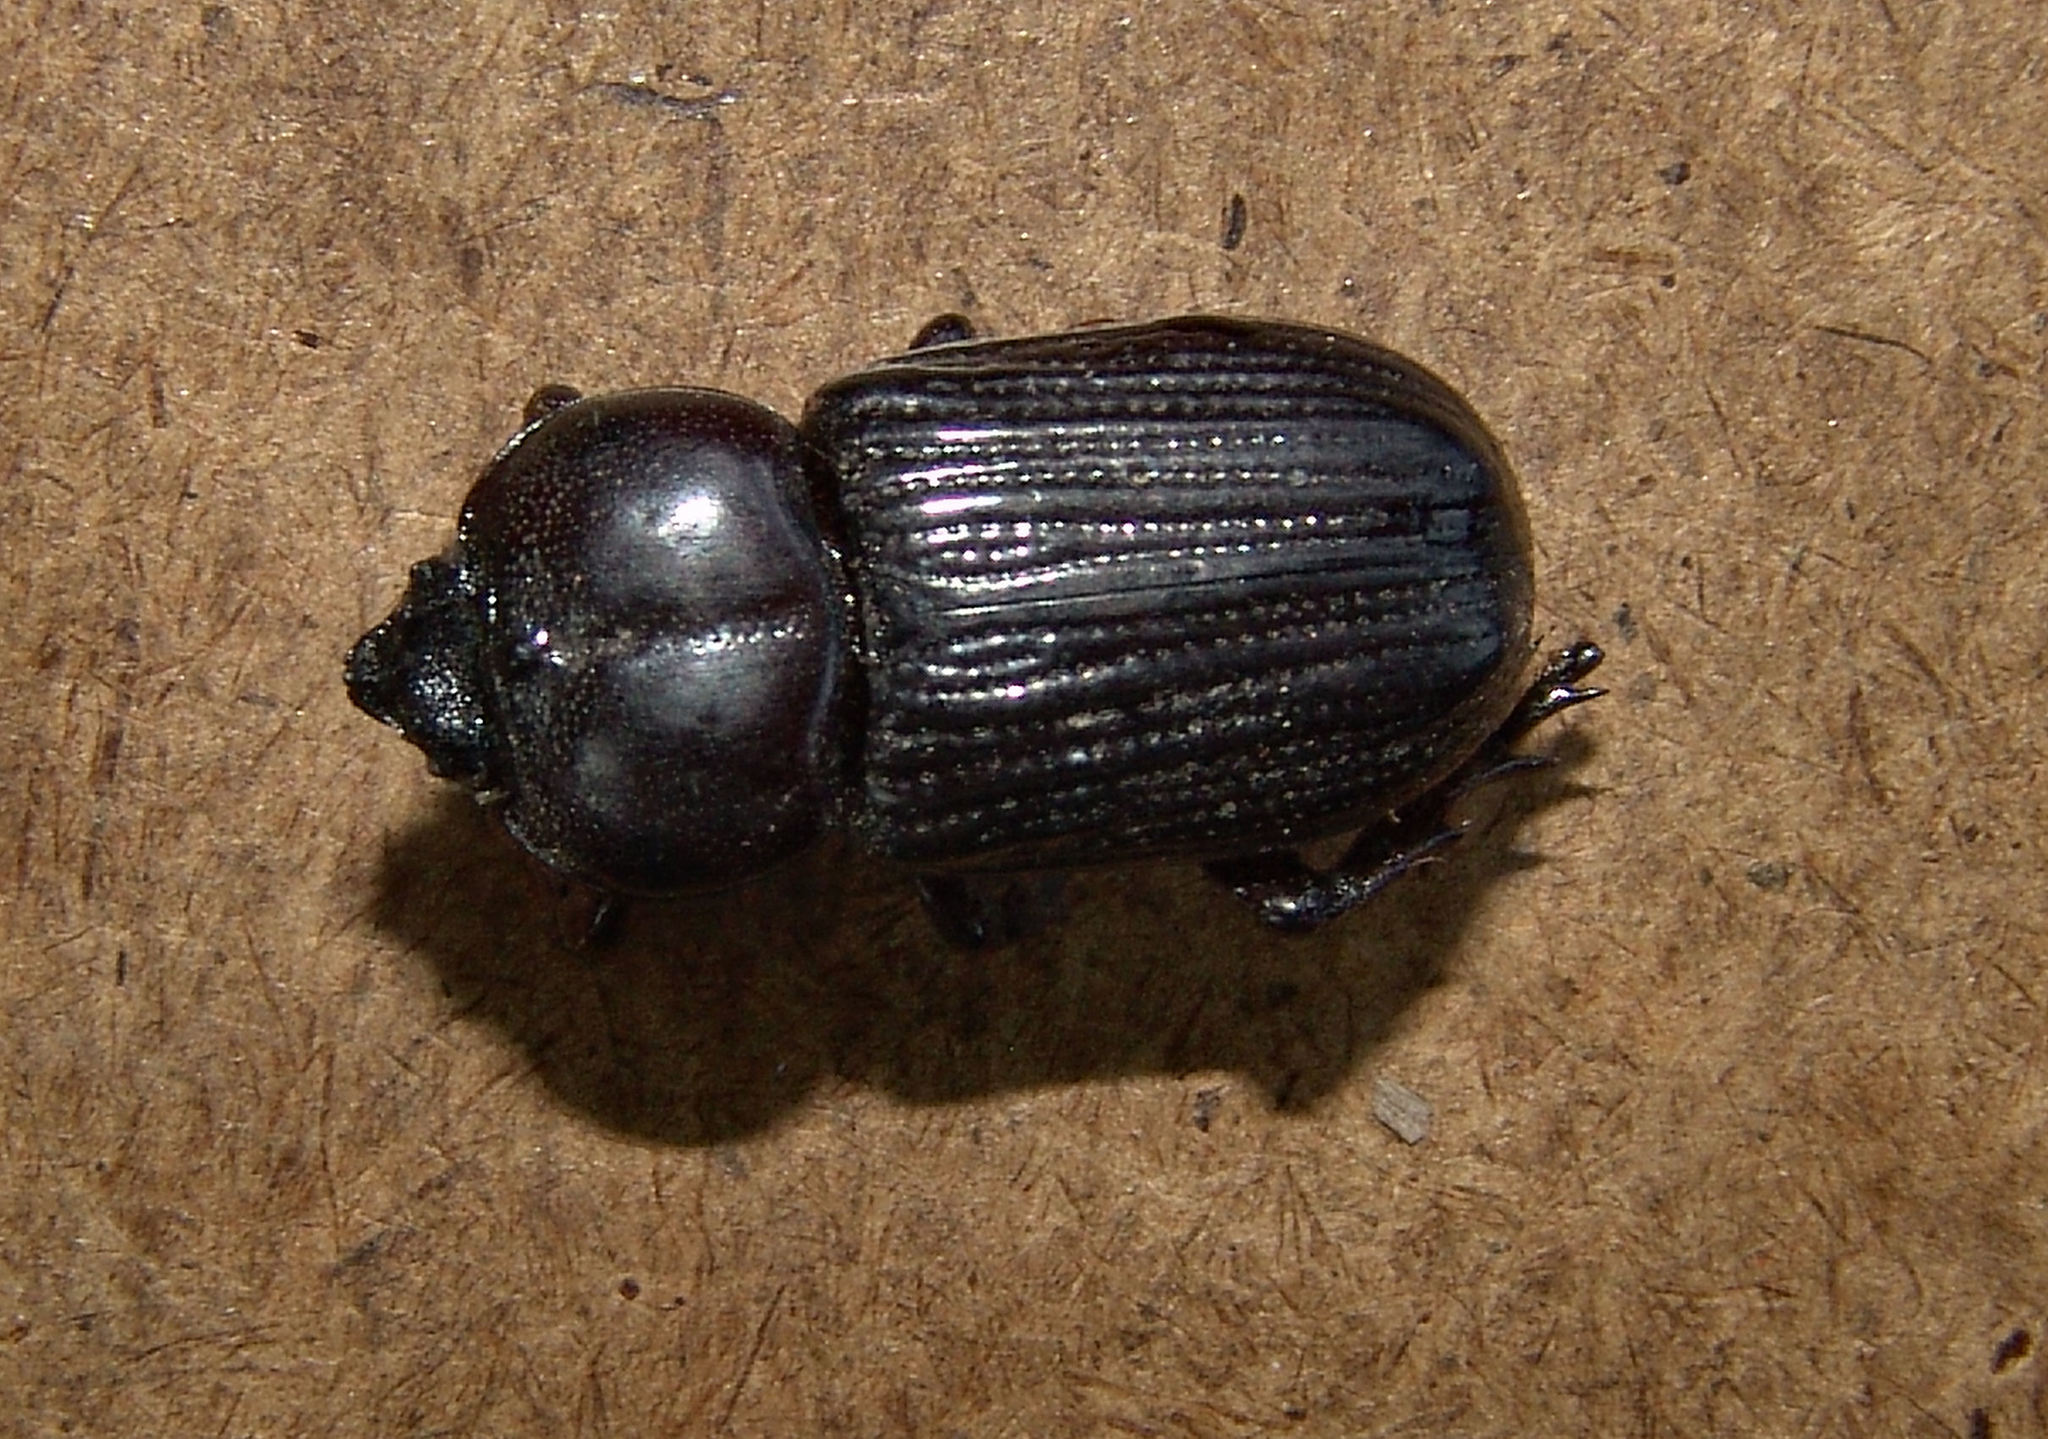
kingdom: Animalia
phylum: Arthropoda
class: Insecta
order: Coleoptera
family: Scarabaeidae
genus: Phileurus
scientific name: Phileurus valgus
